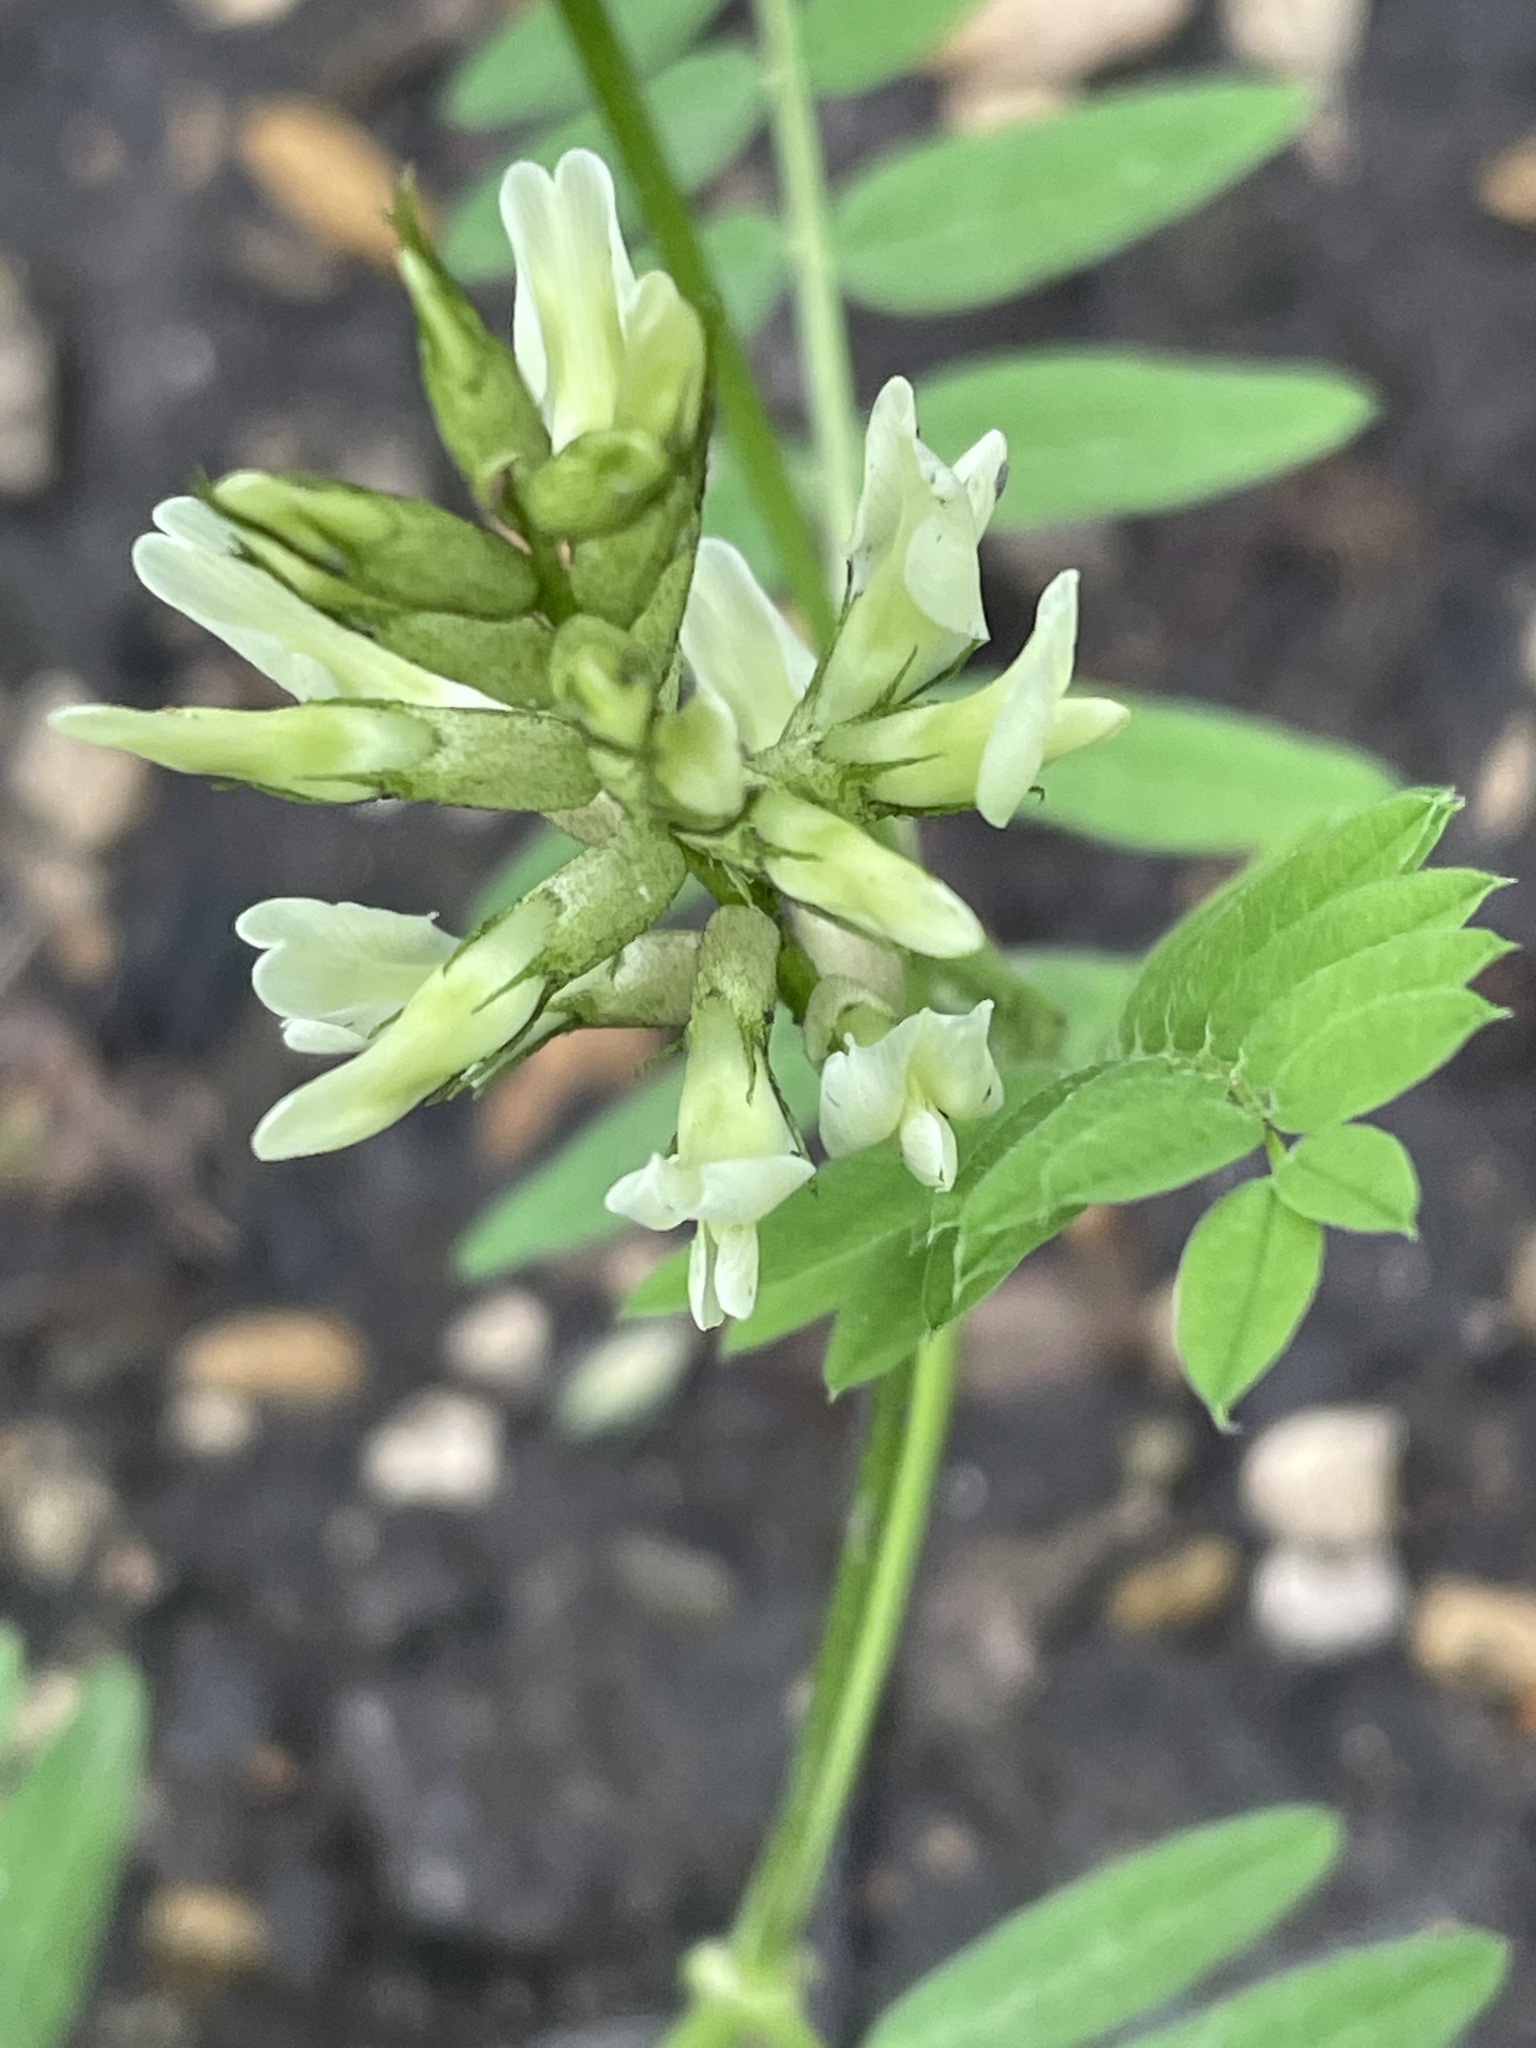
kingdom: Plantae
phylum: Tracheophyta
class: Magnoliopsida
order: Fabales
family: Fabaceae
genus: Astragalus
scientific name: Astragalus cicer
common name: Chick-pea milk-vetch
